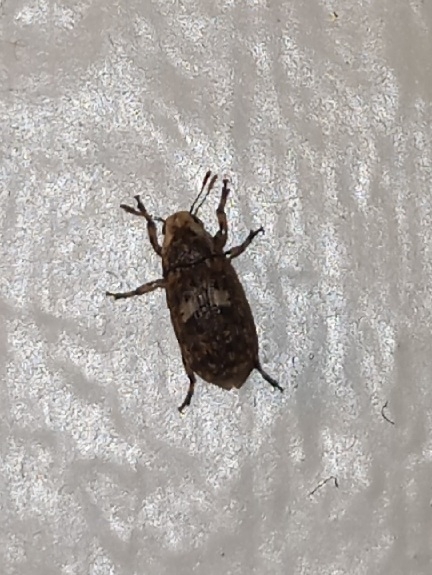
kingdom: Animalia
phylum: Arthropoda
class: Insecta
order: Coleoptera
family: Anthribidae
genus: Euparius
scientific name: Euparius marmoreus
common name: Marbled fungus weevil
